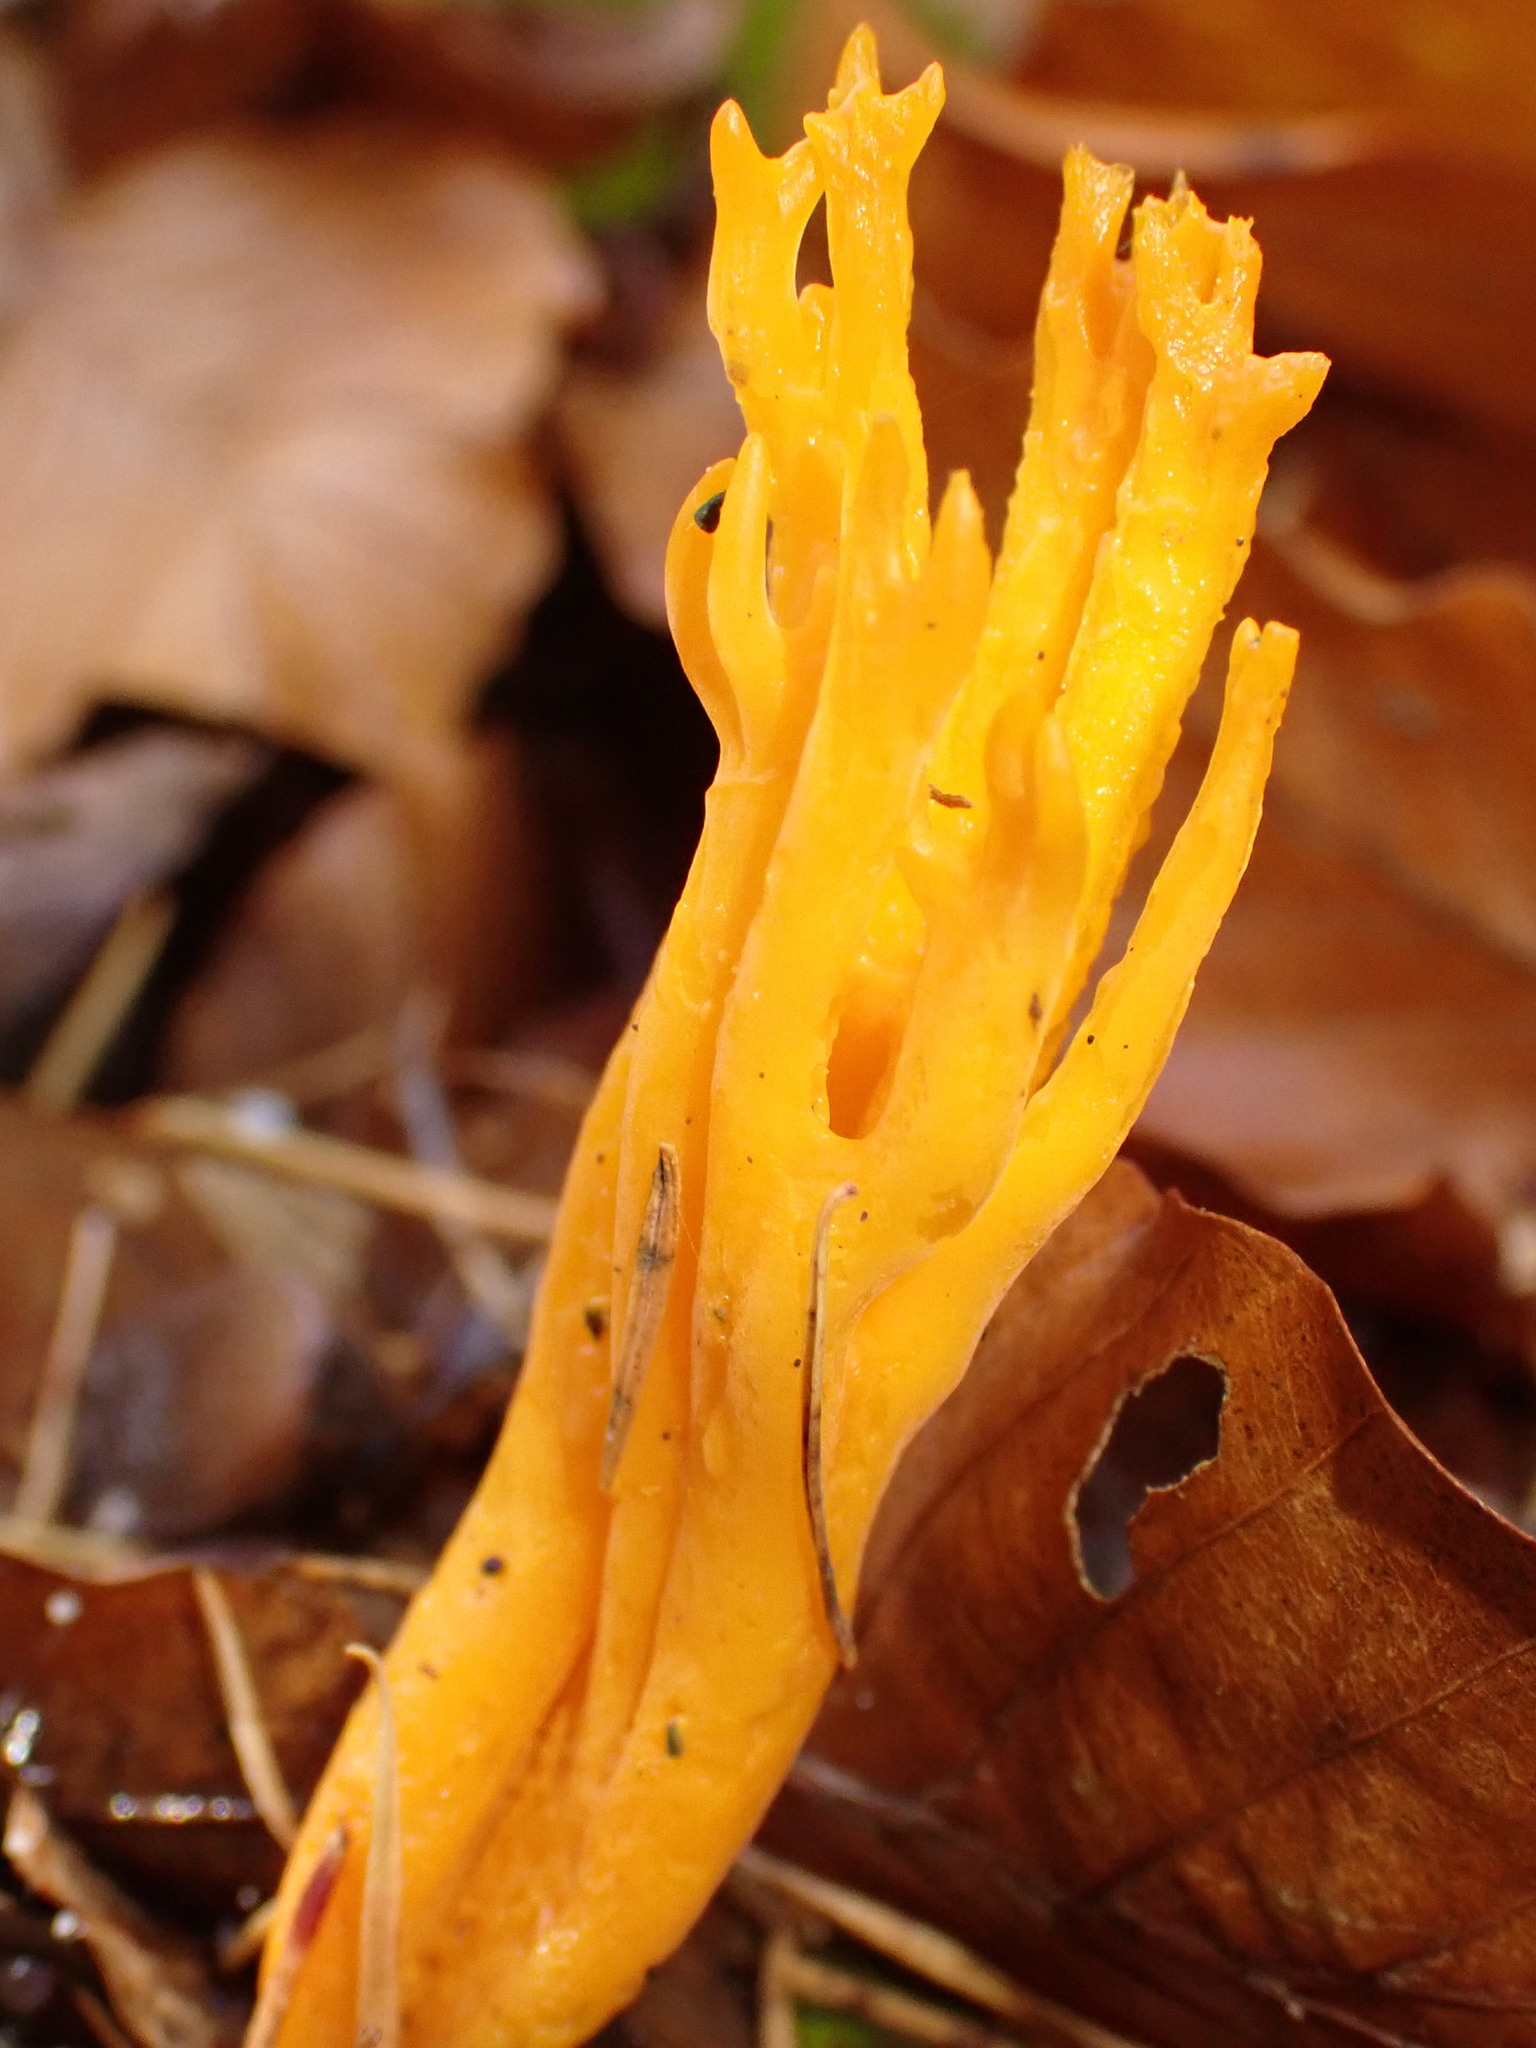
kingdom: Fungi
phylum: Basidiomycota
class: Dacrymycetes
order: Dacrymycetales
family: Dacrymycetaceae
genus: Calocera
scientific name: Calocera viscosa
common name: Yellow stagshorn
